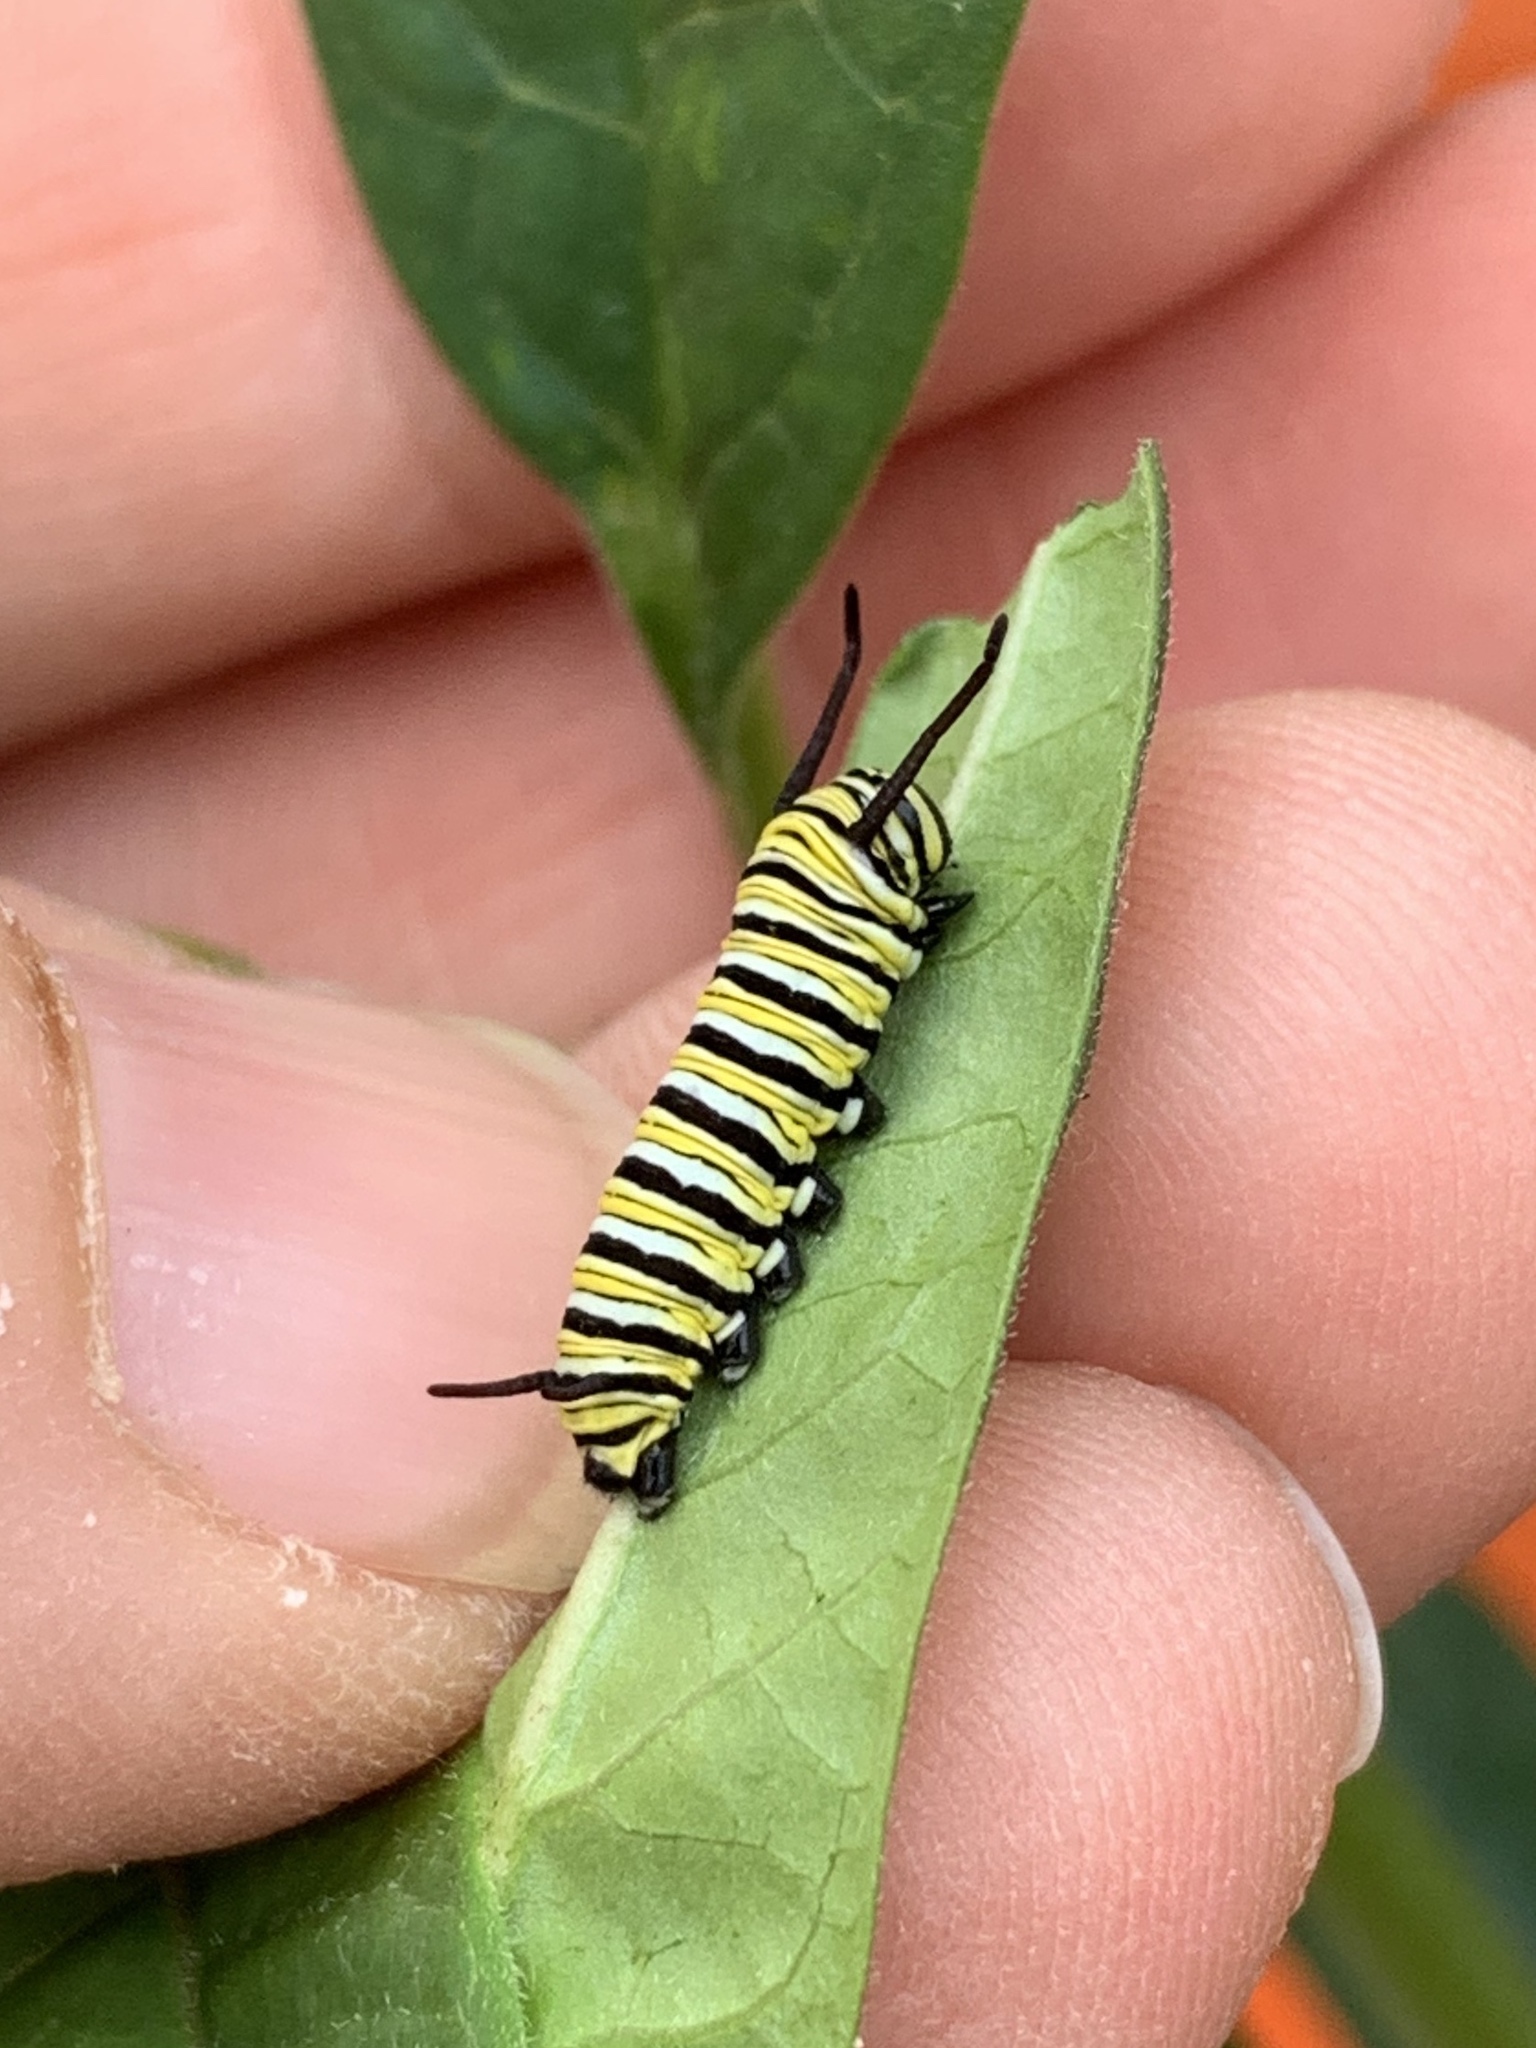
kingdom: Animalia
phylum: Arthropoda
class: Insecta
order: Lepidoptera
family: Nymphalidae
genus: Danaus
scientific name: Danaus plexippus
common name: Monarch
